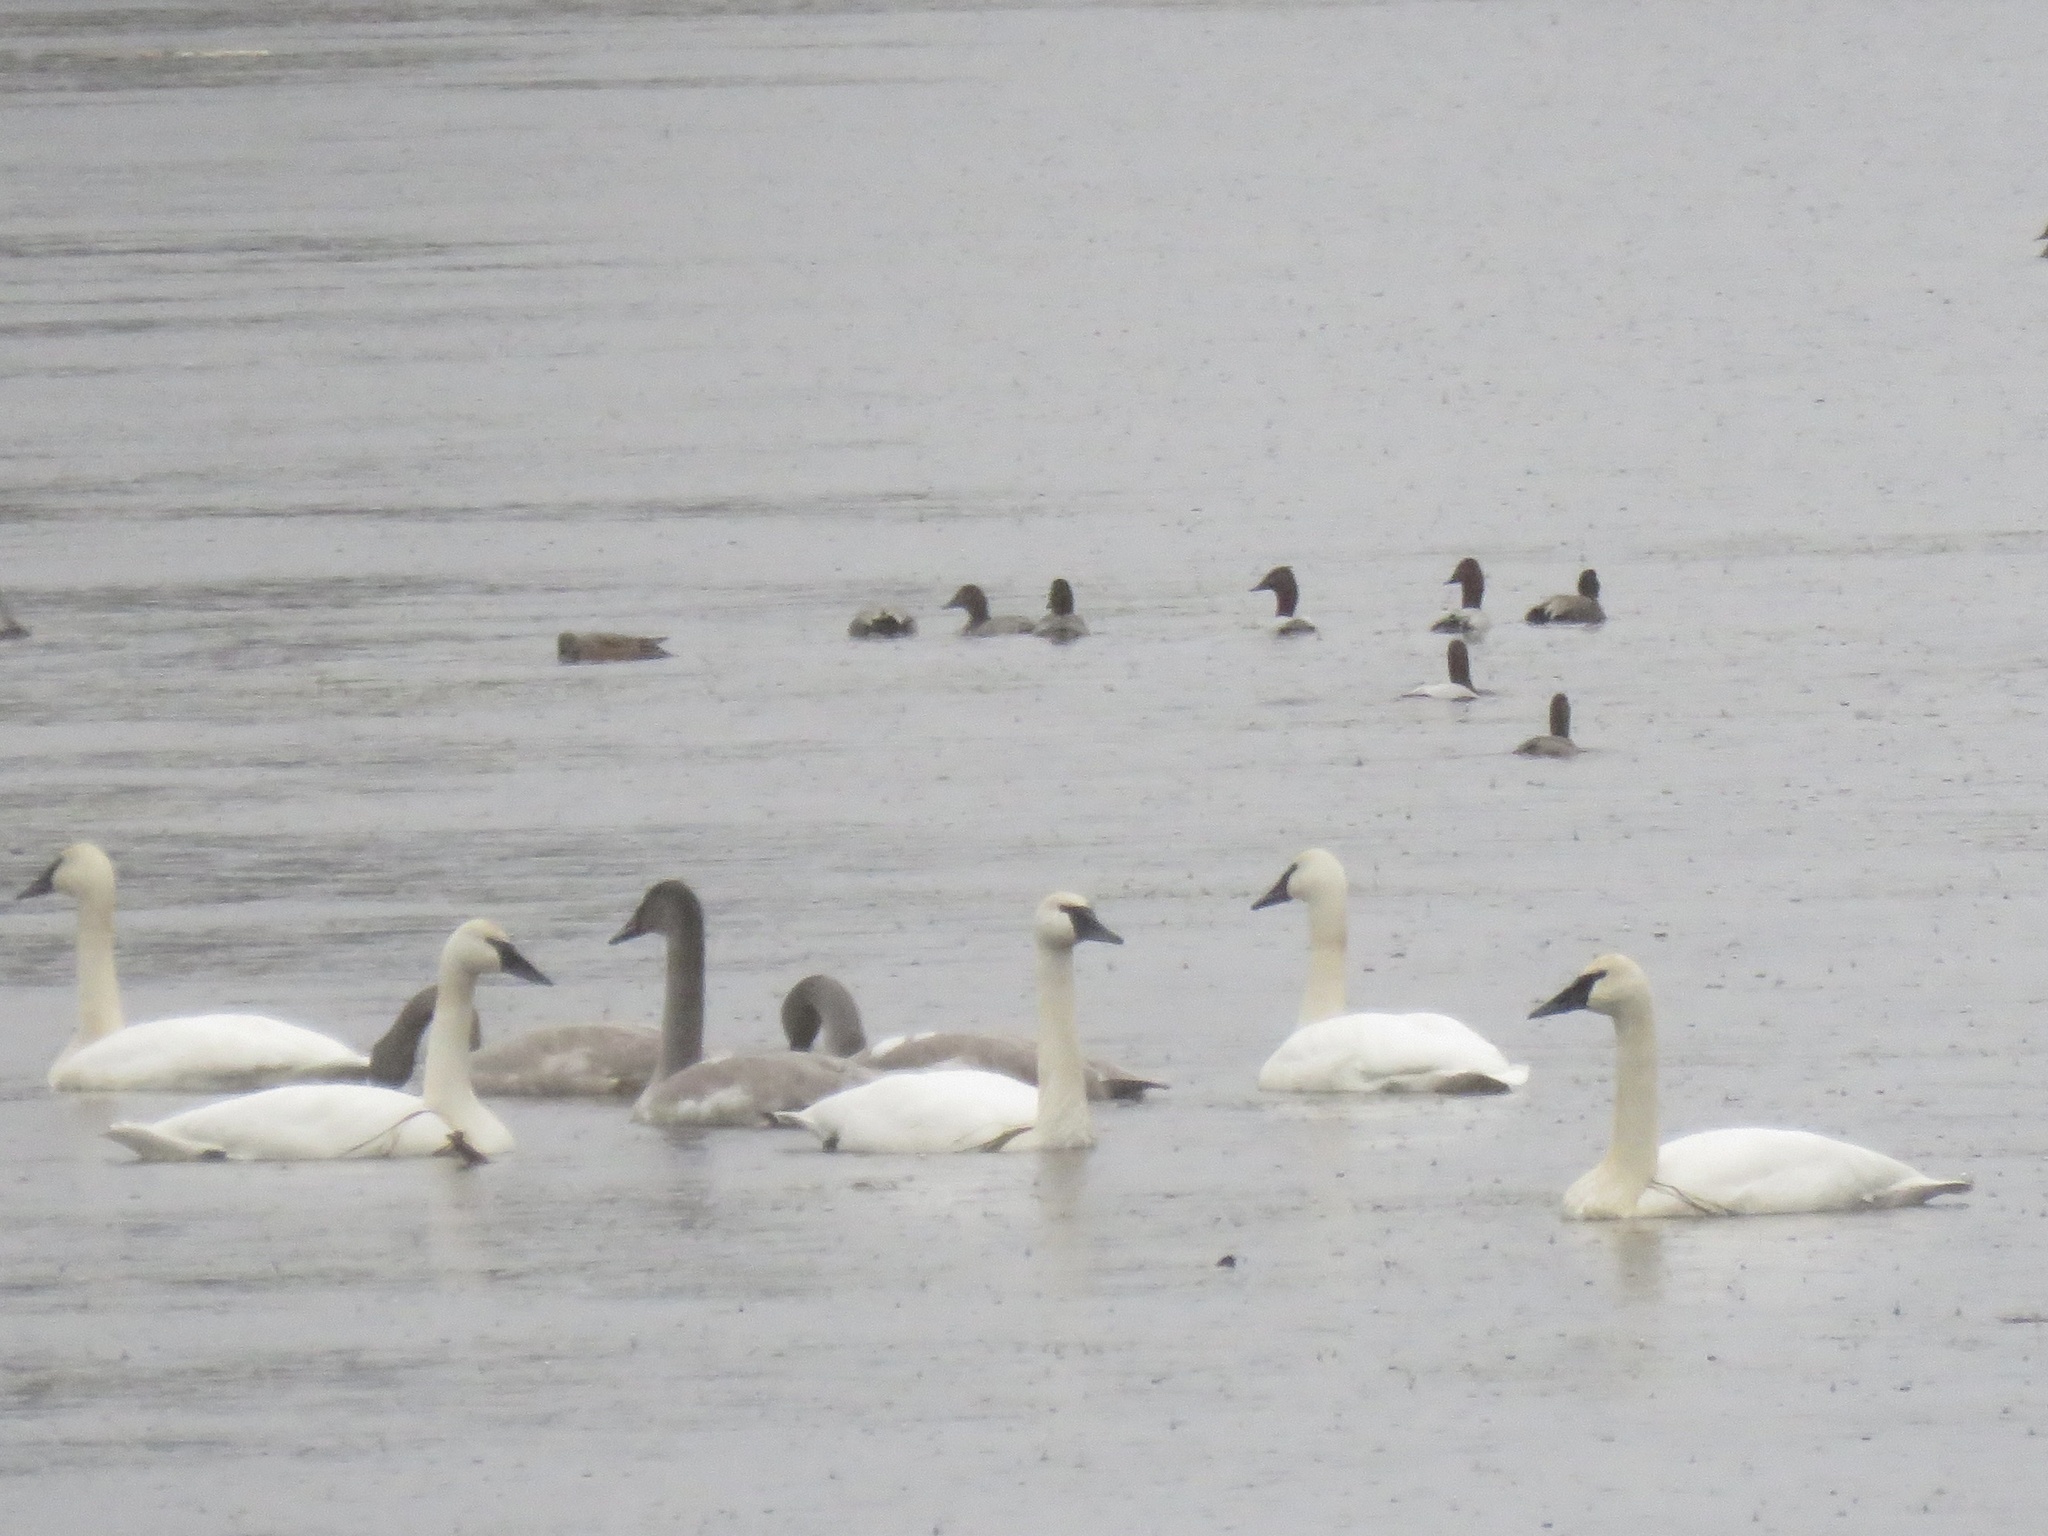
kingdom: Animalia
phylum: Chordata
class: Aves
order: Anseriformes
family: Anatidae
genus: Cygnus
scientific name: Cygnus buccinator
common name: Trumpeter swan
